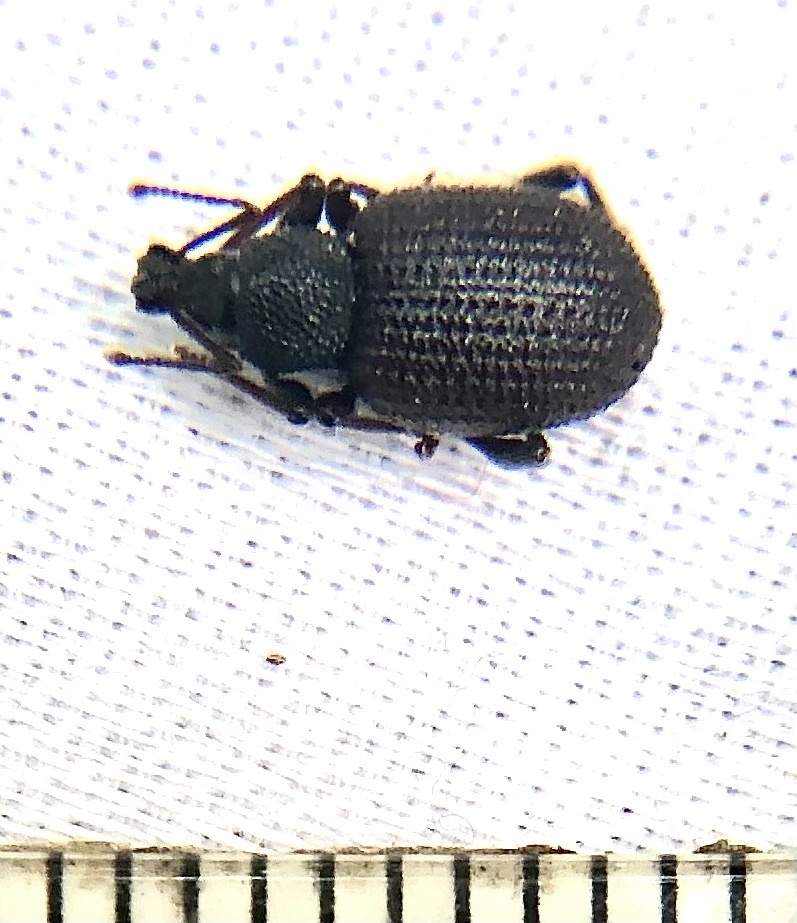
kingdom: Animalia
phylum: Arthropoda
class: Insecta
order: Coleoptera
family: Curculionidae
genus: Otiorhynchus
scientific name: Otiorhynchus rugosostriatus
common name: Weevil
